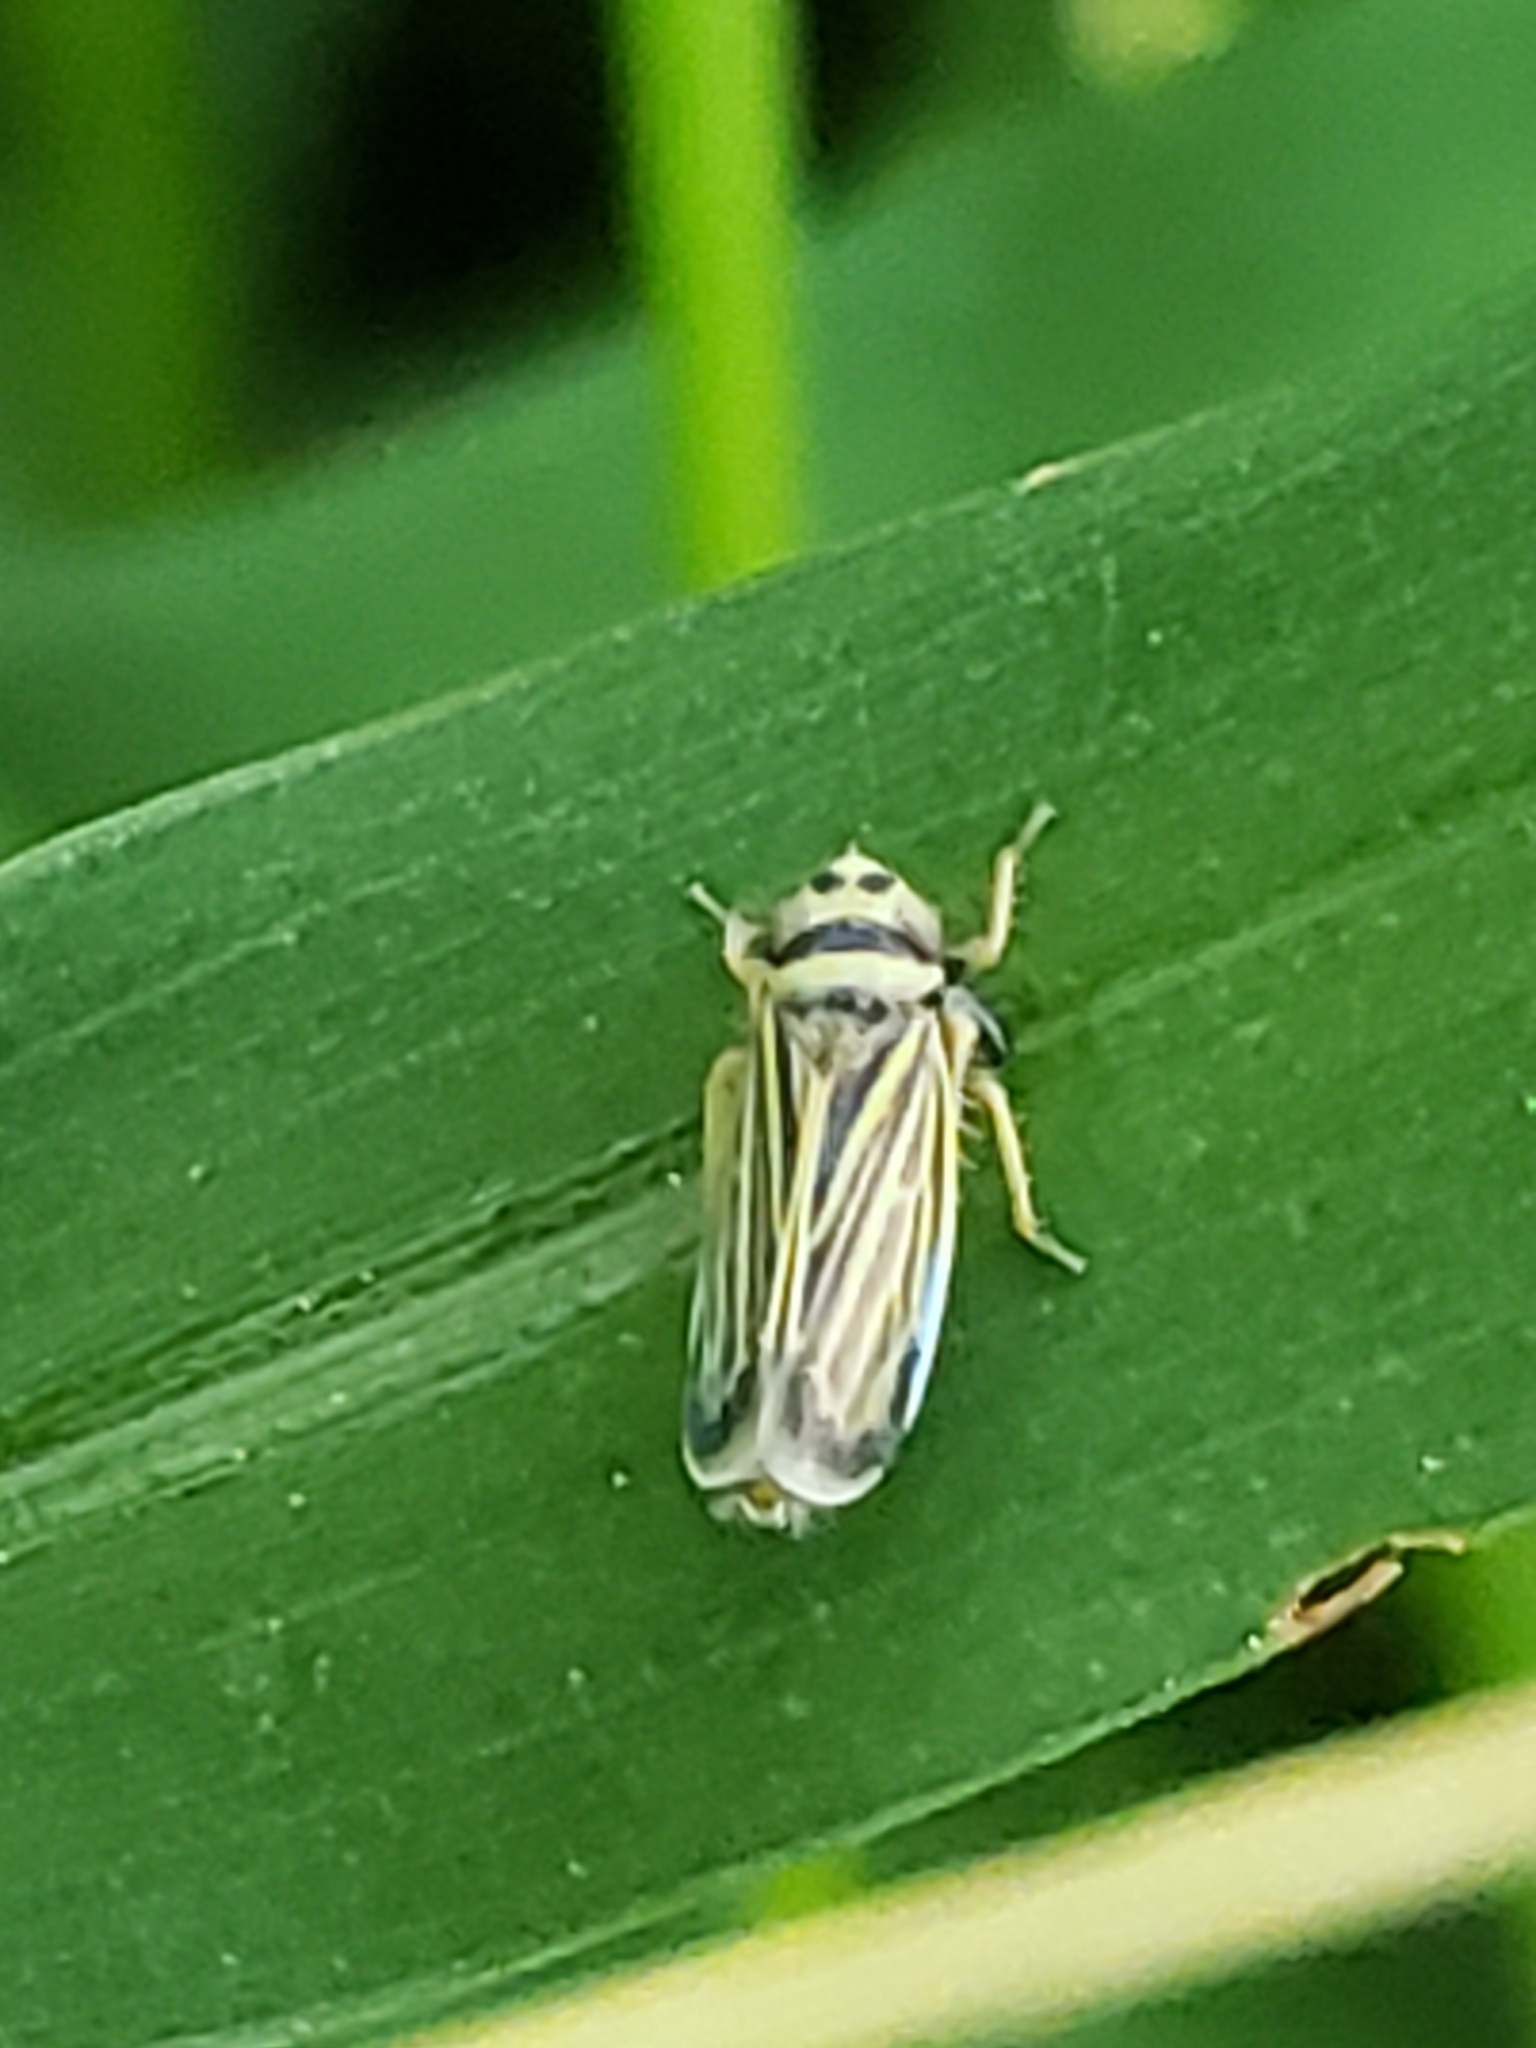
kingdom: Animalia
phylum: Arthropoda
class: Insecta
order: Hemiptera
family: Cicadellidae
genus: Amblysellus
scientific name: Amblysellus curtisii
